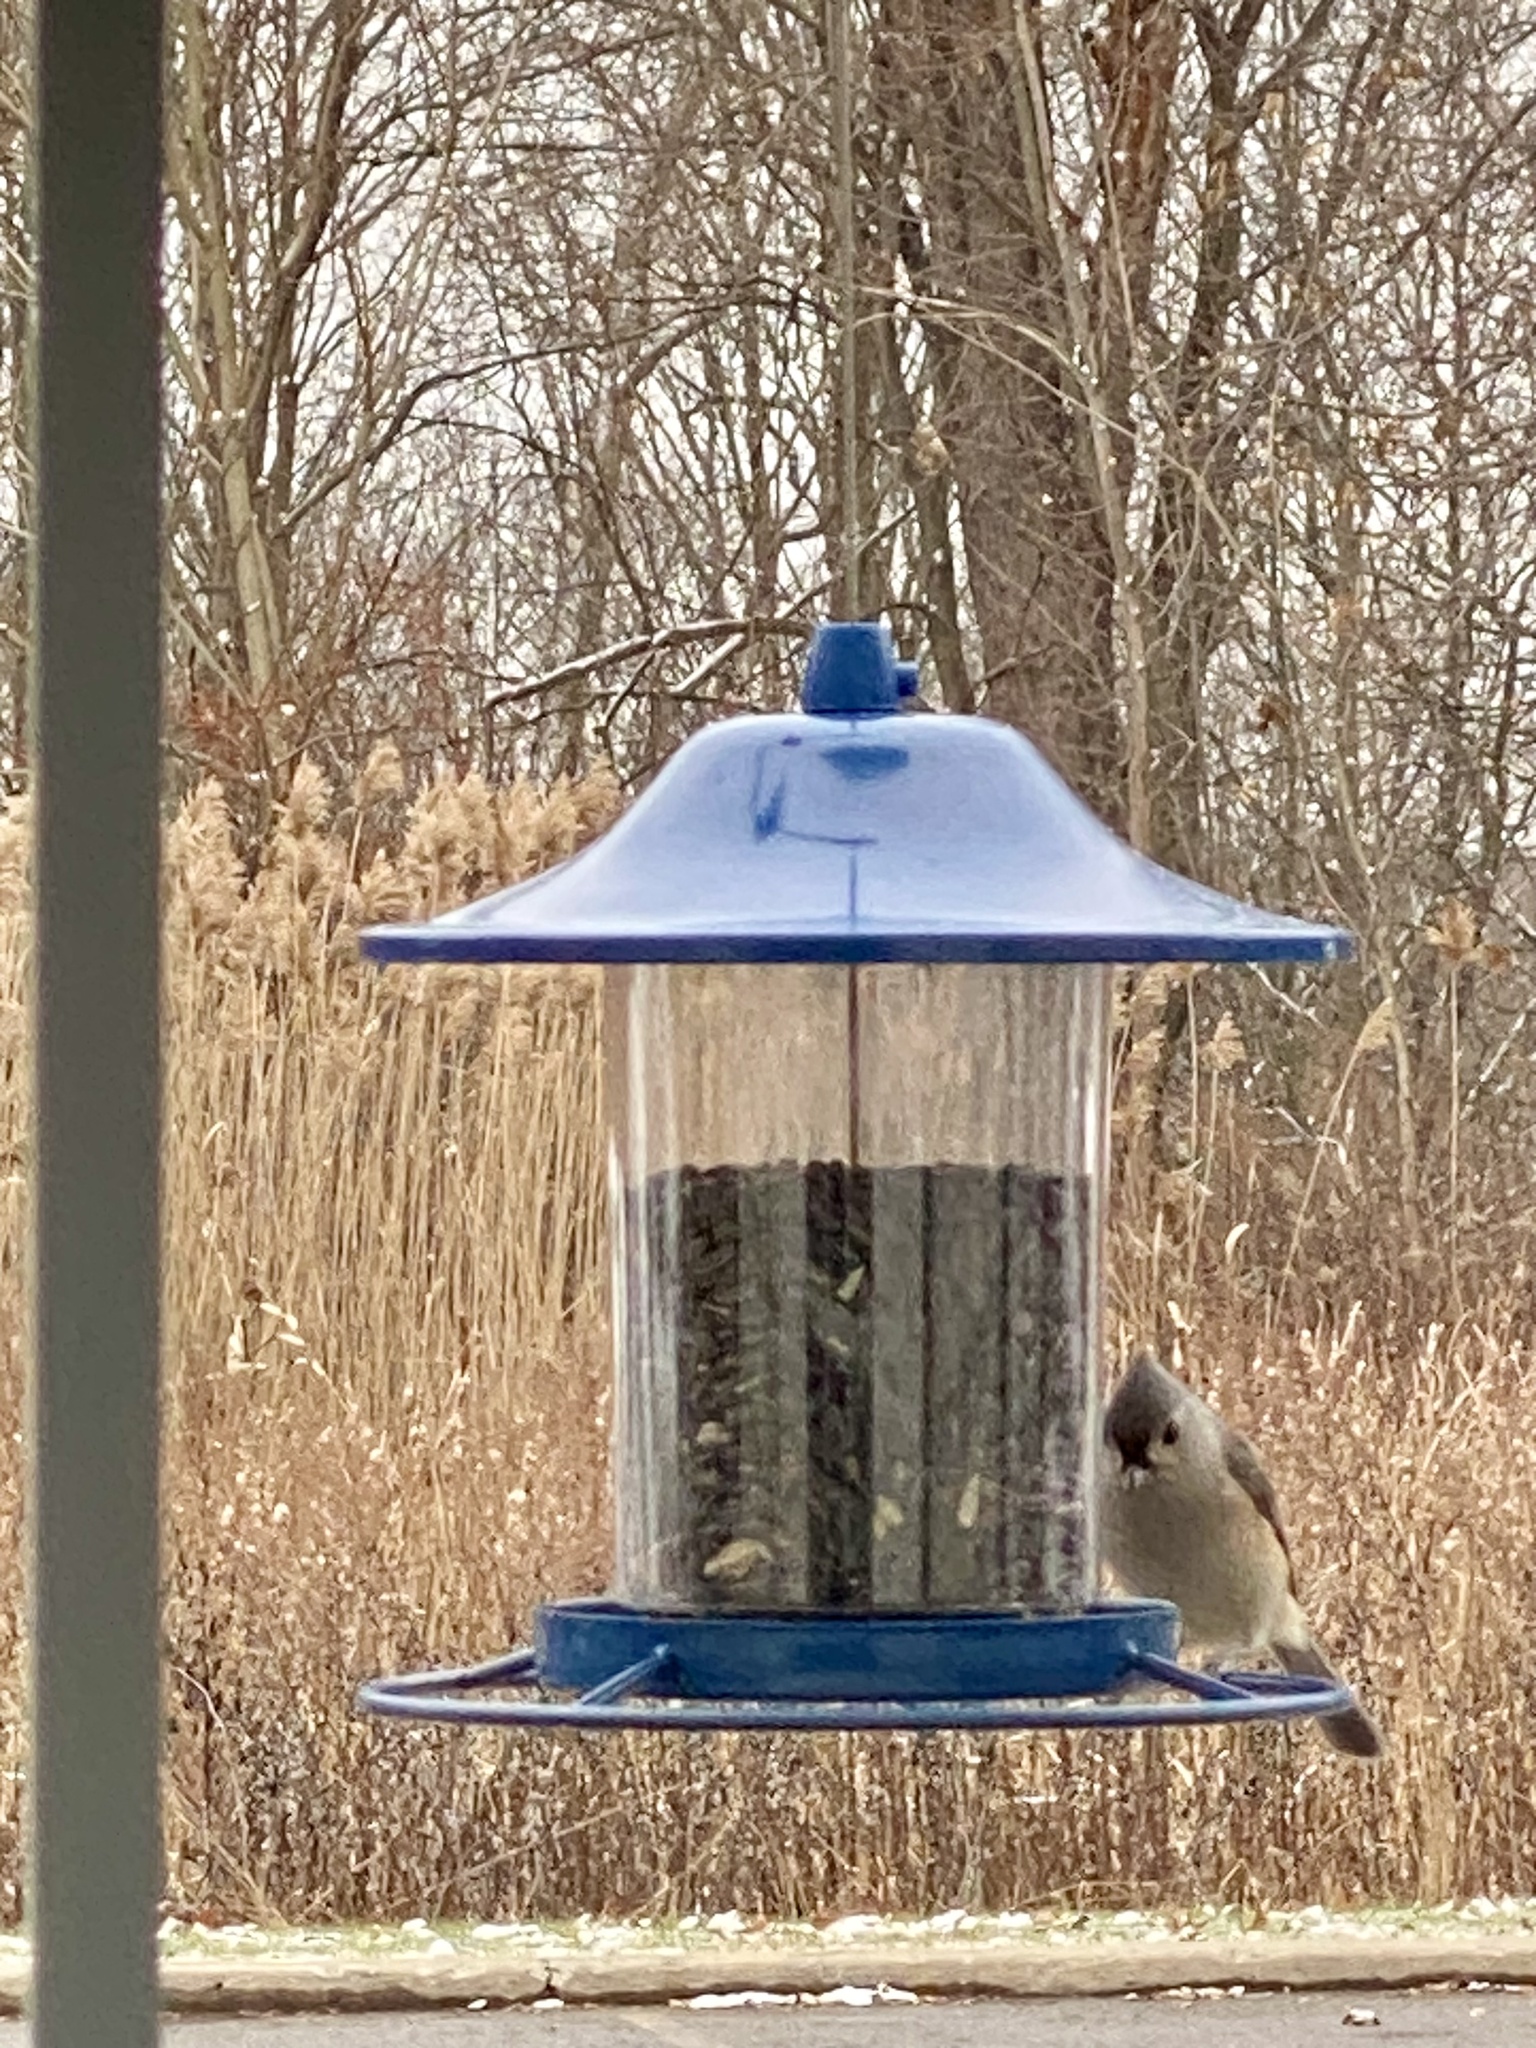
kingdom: Animalia
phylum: Chordata
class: Aves
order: Passeriformes
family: Paridae
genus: Baeolophus
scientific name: Baeolophus bicolor
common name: Tufted titmouse
